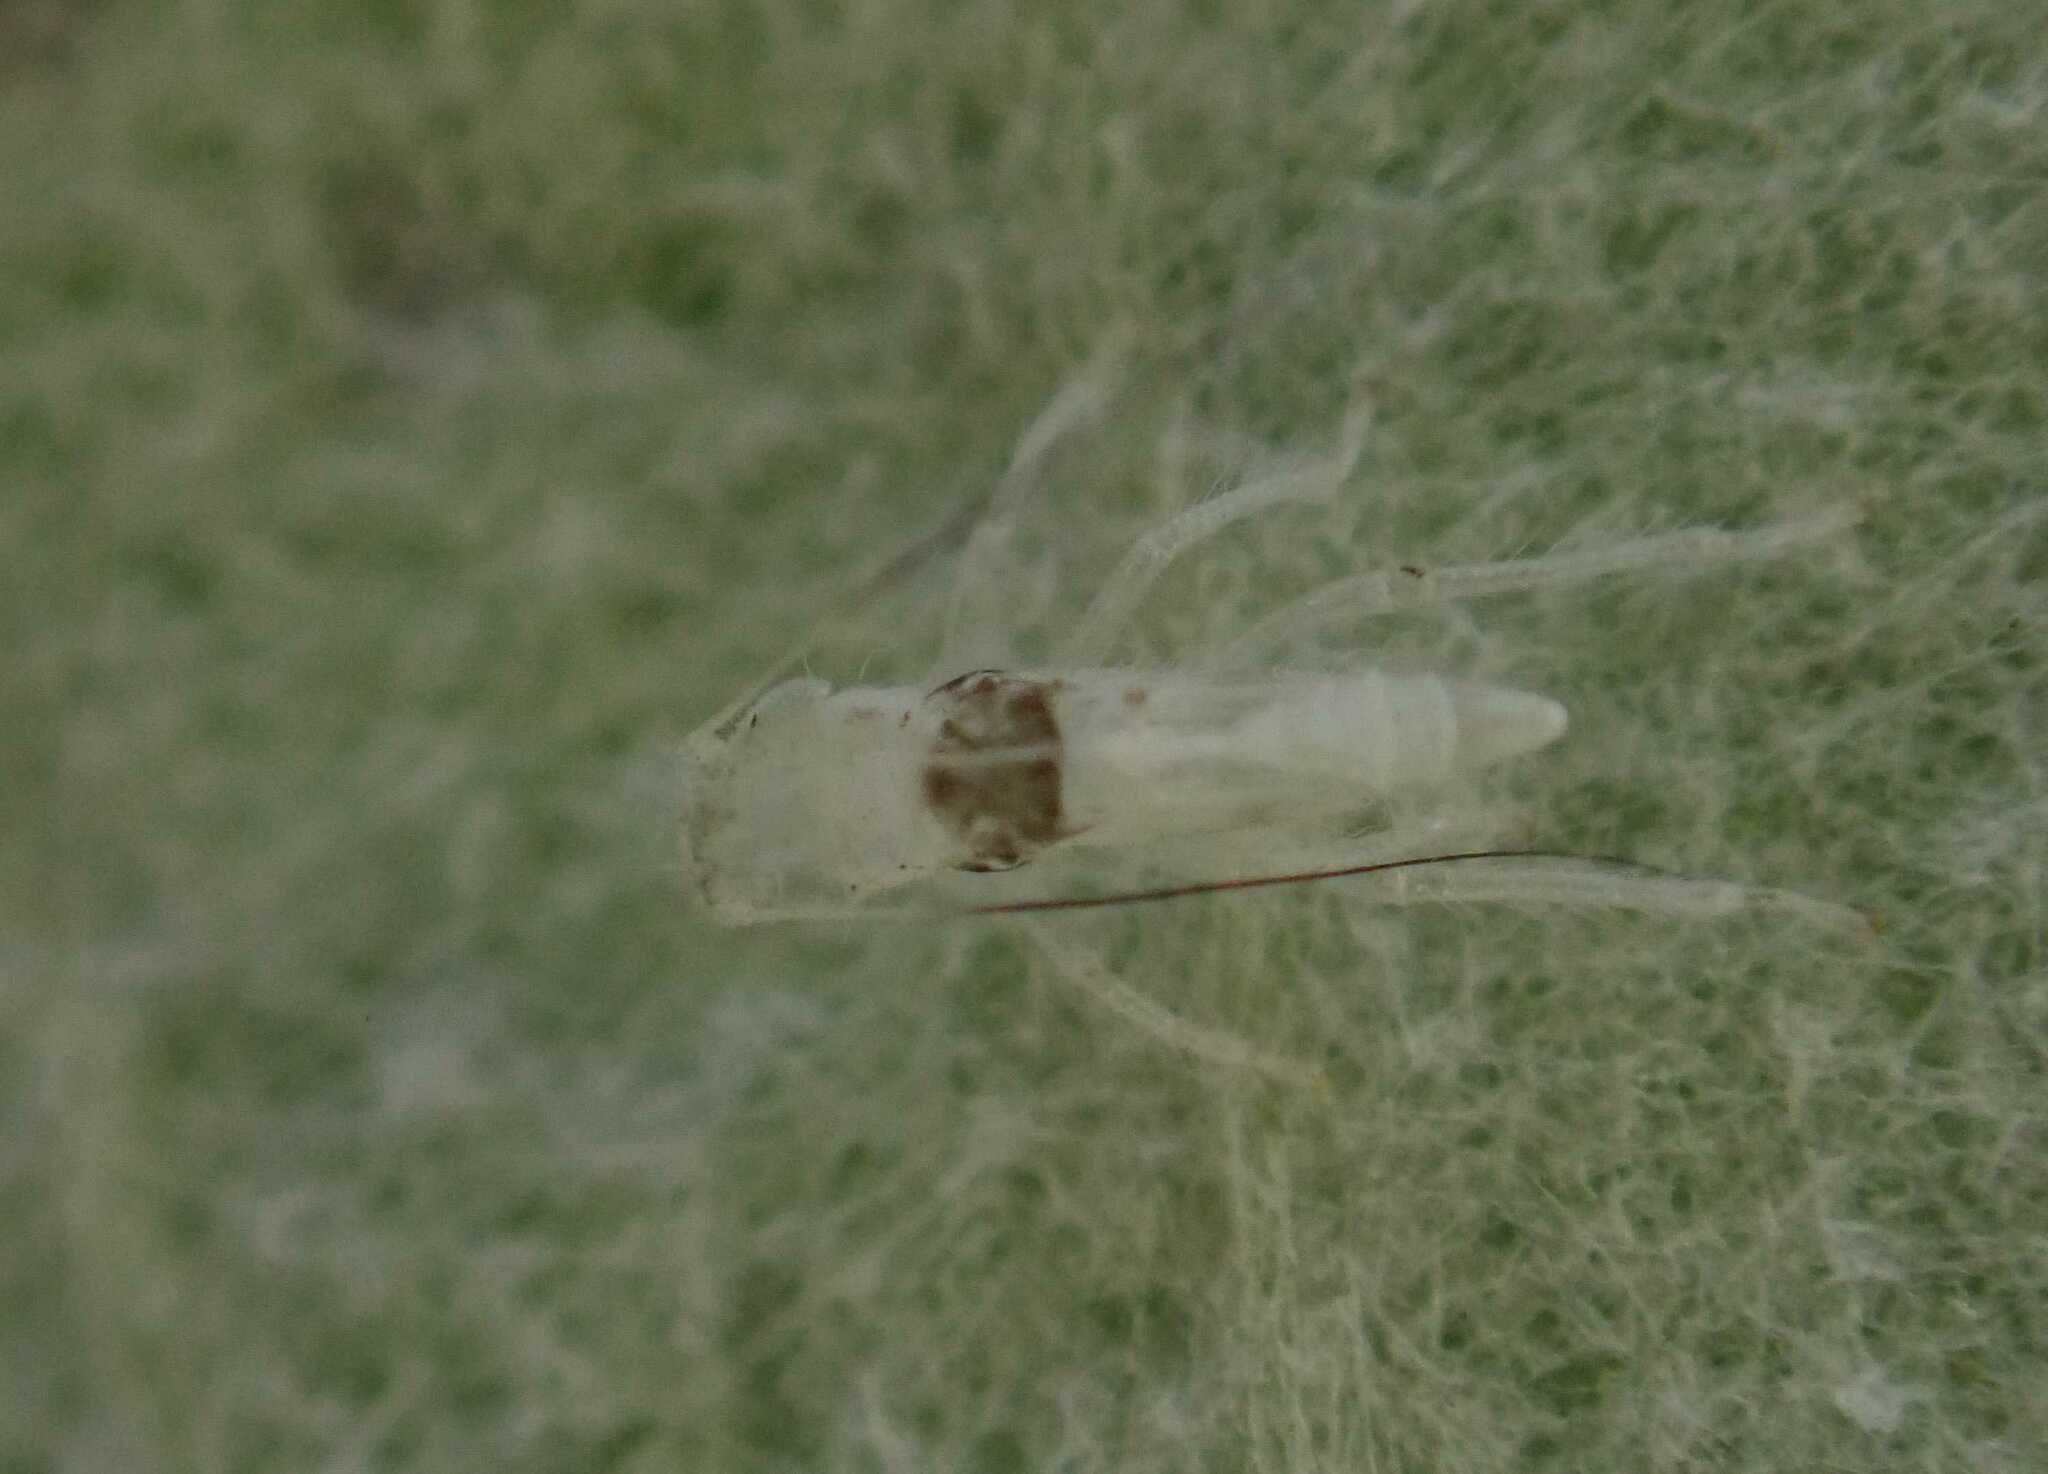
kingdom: Animalia
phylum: Arthropoda
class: Insecta
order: Hemiptera
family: Cicadellidae
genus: Zygina
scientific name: Zygina nivea
